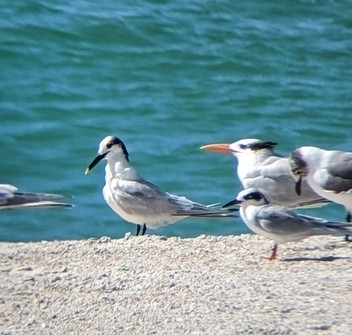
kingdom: Animalia
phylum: Chordata
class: Aves
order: Charadriiformes
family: Laridae
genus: Thalasseus
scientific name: Thalasseus sandvicensis
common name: Sandwich tern
